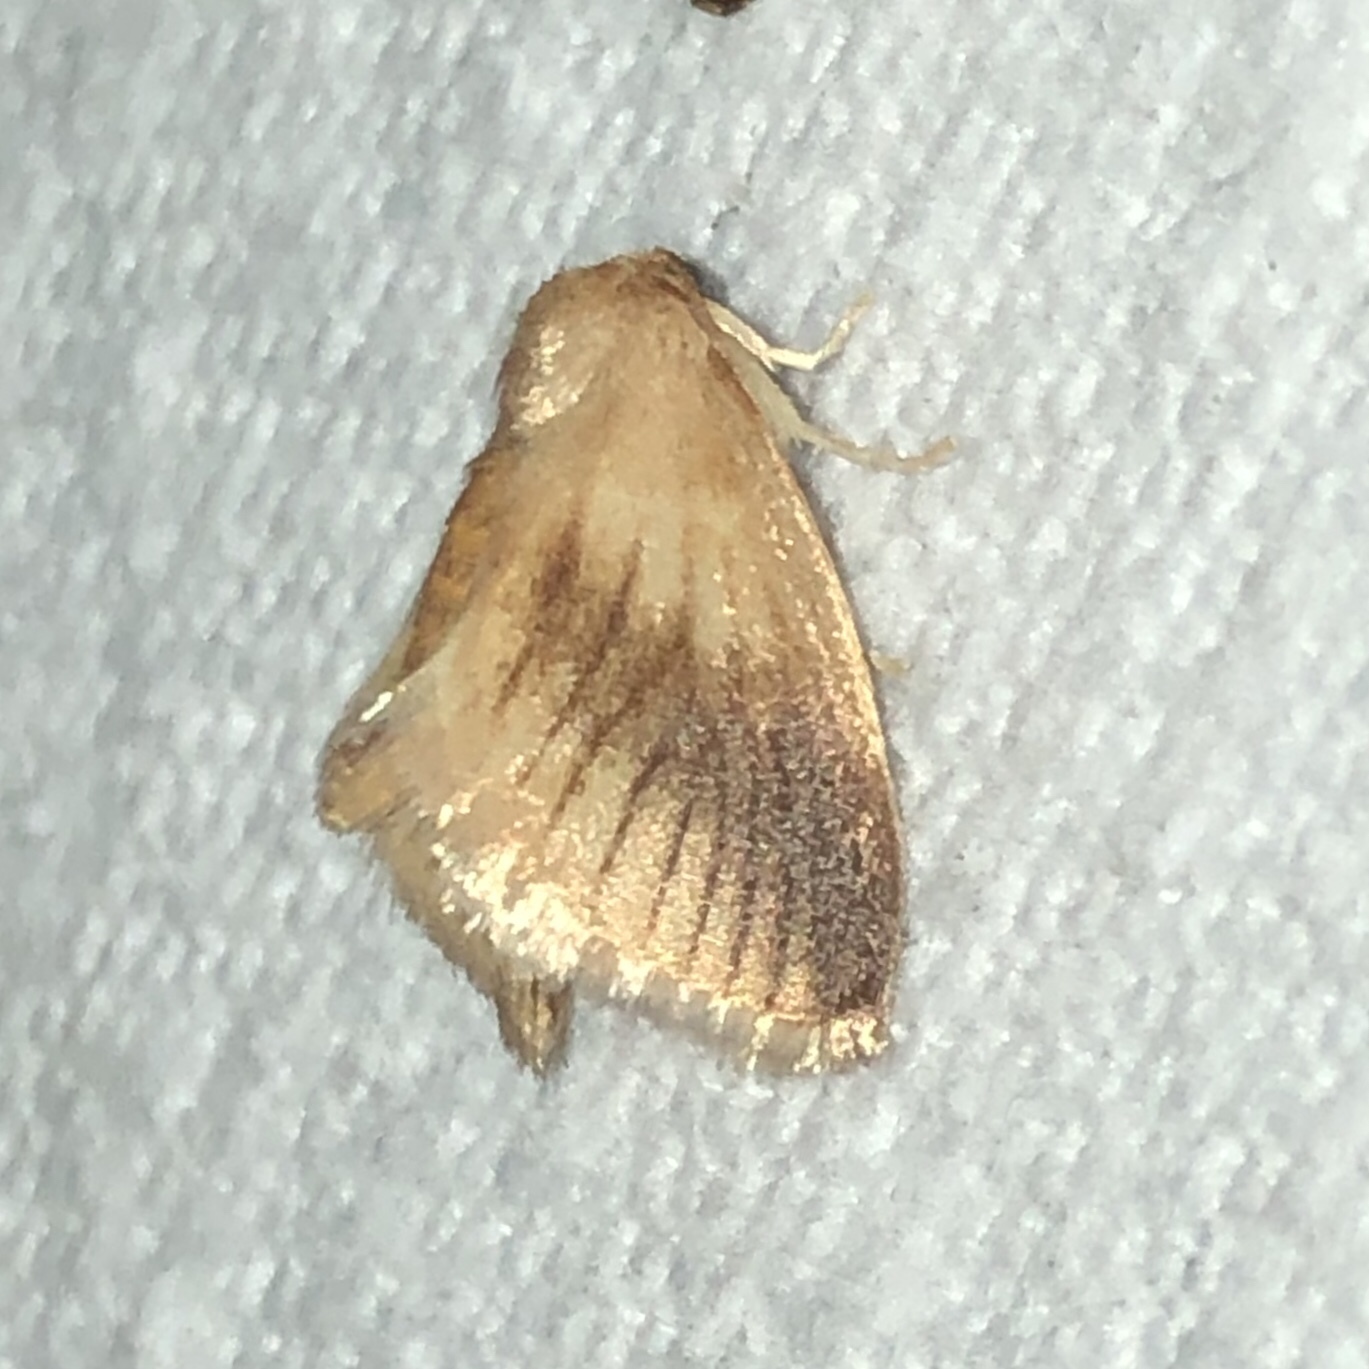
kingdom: Animalia
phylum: Arthropoda
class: Insecta
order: Lepidoptera
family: Limacodidae
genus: Tortricidia
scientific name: Tortricidia testacea
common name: Early button slug moth
